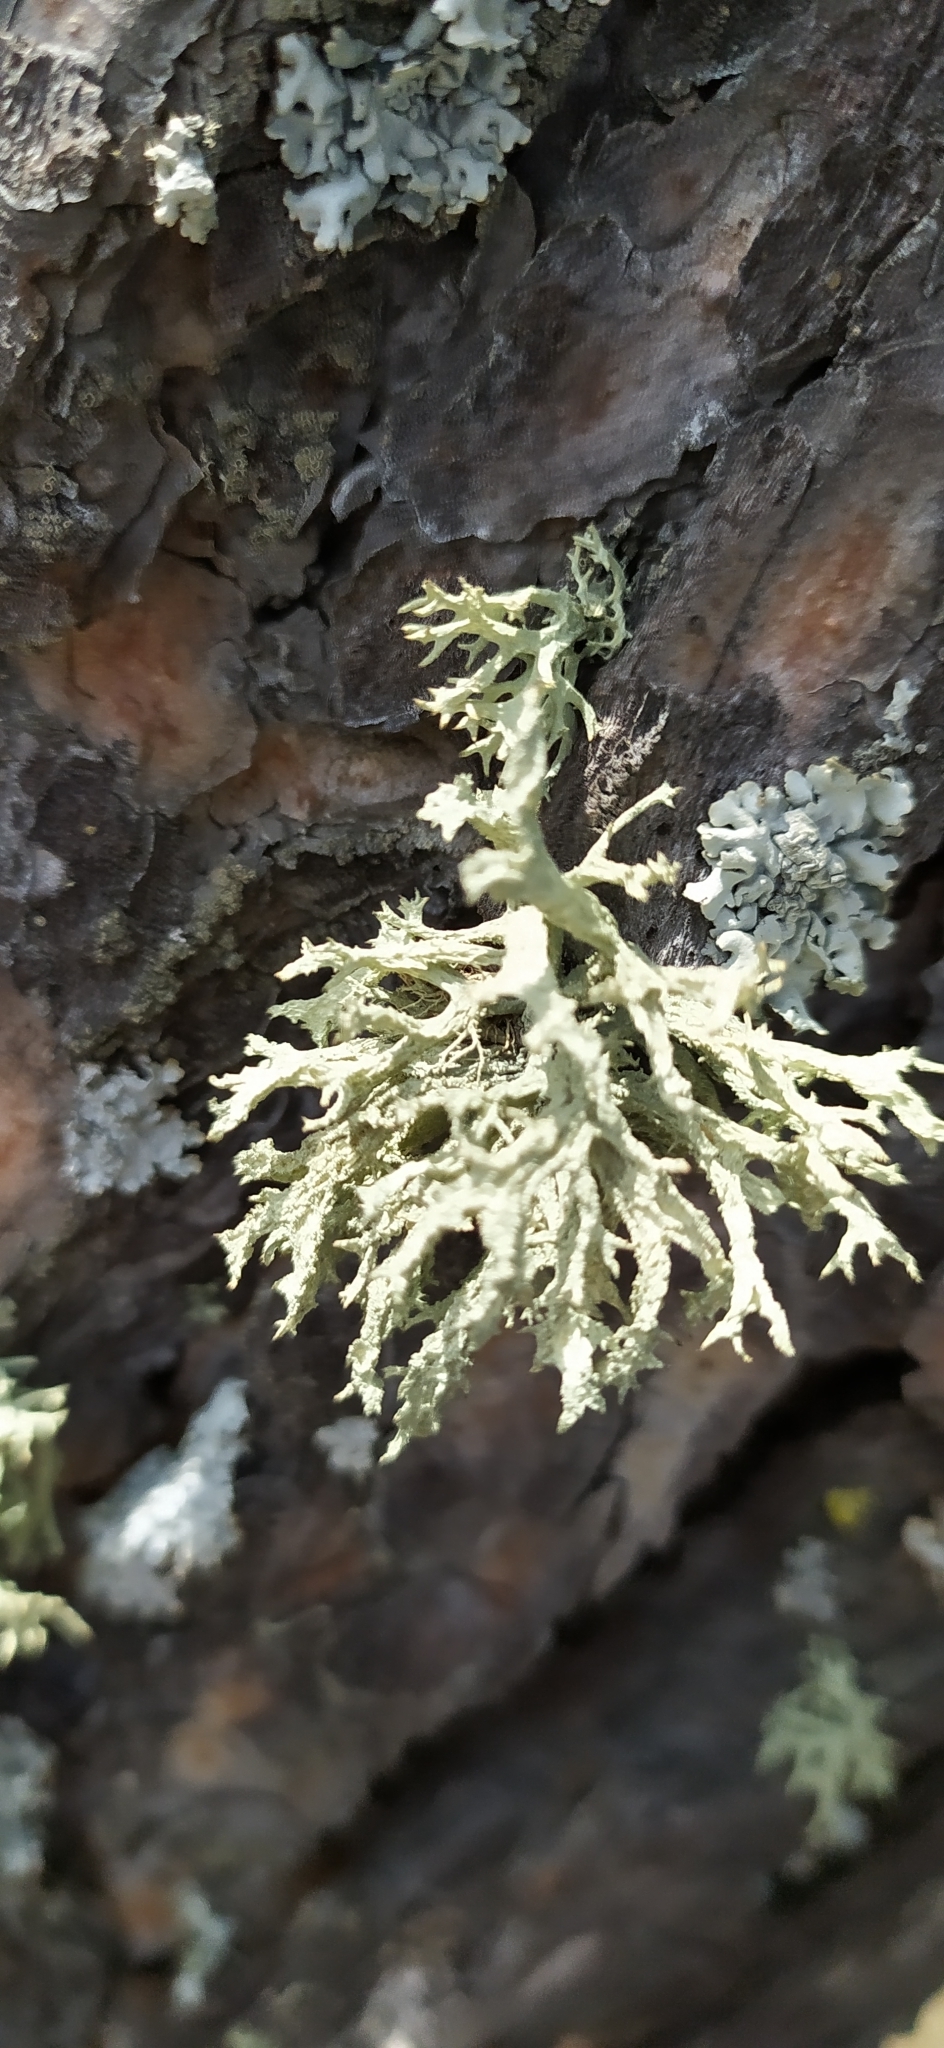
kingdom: Fungi
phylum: Ascomycota
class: Lecanoromycetes
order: Lecanorales
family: Parmeliaceae
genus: Evernia
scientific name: Evernia mesomorpha
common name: Boreal oak moss lichen
